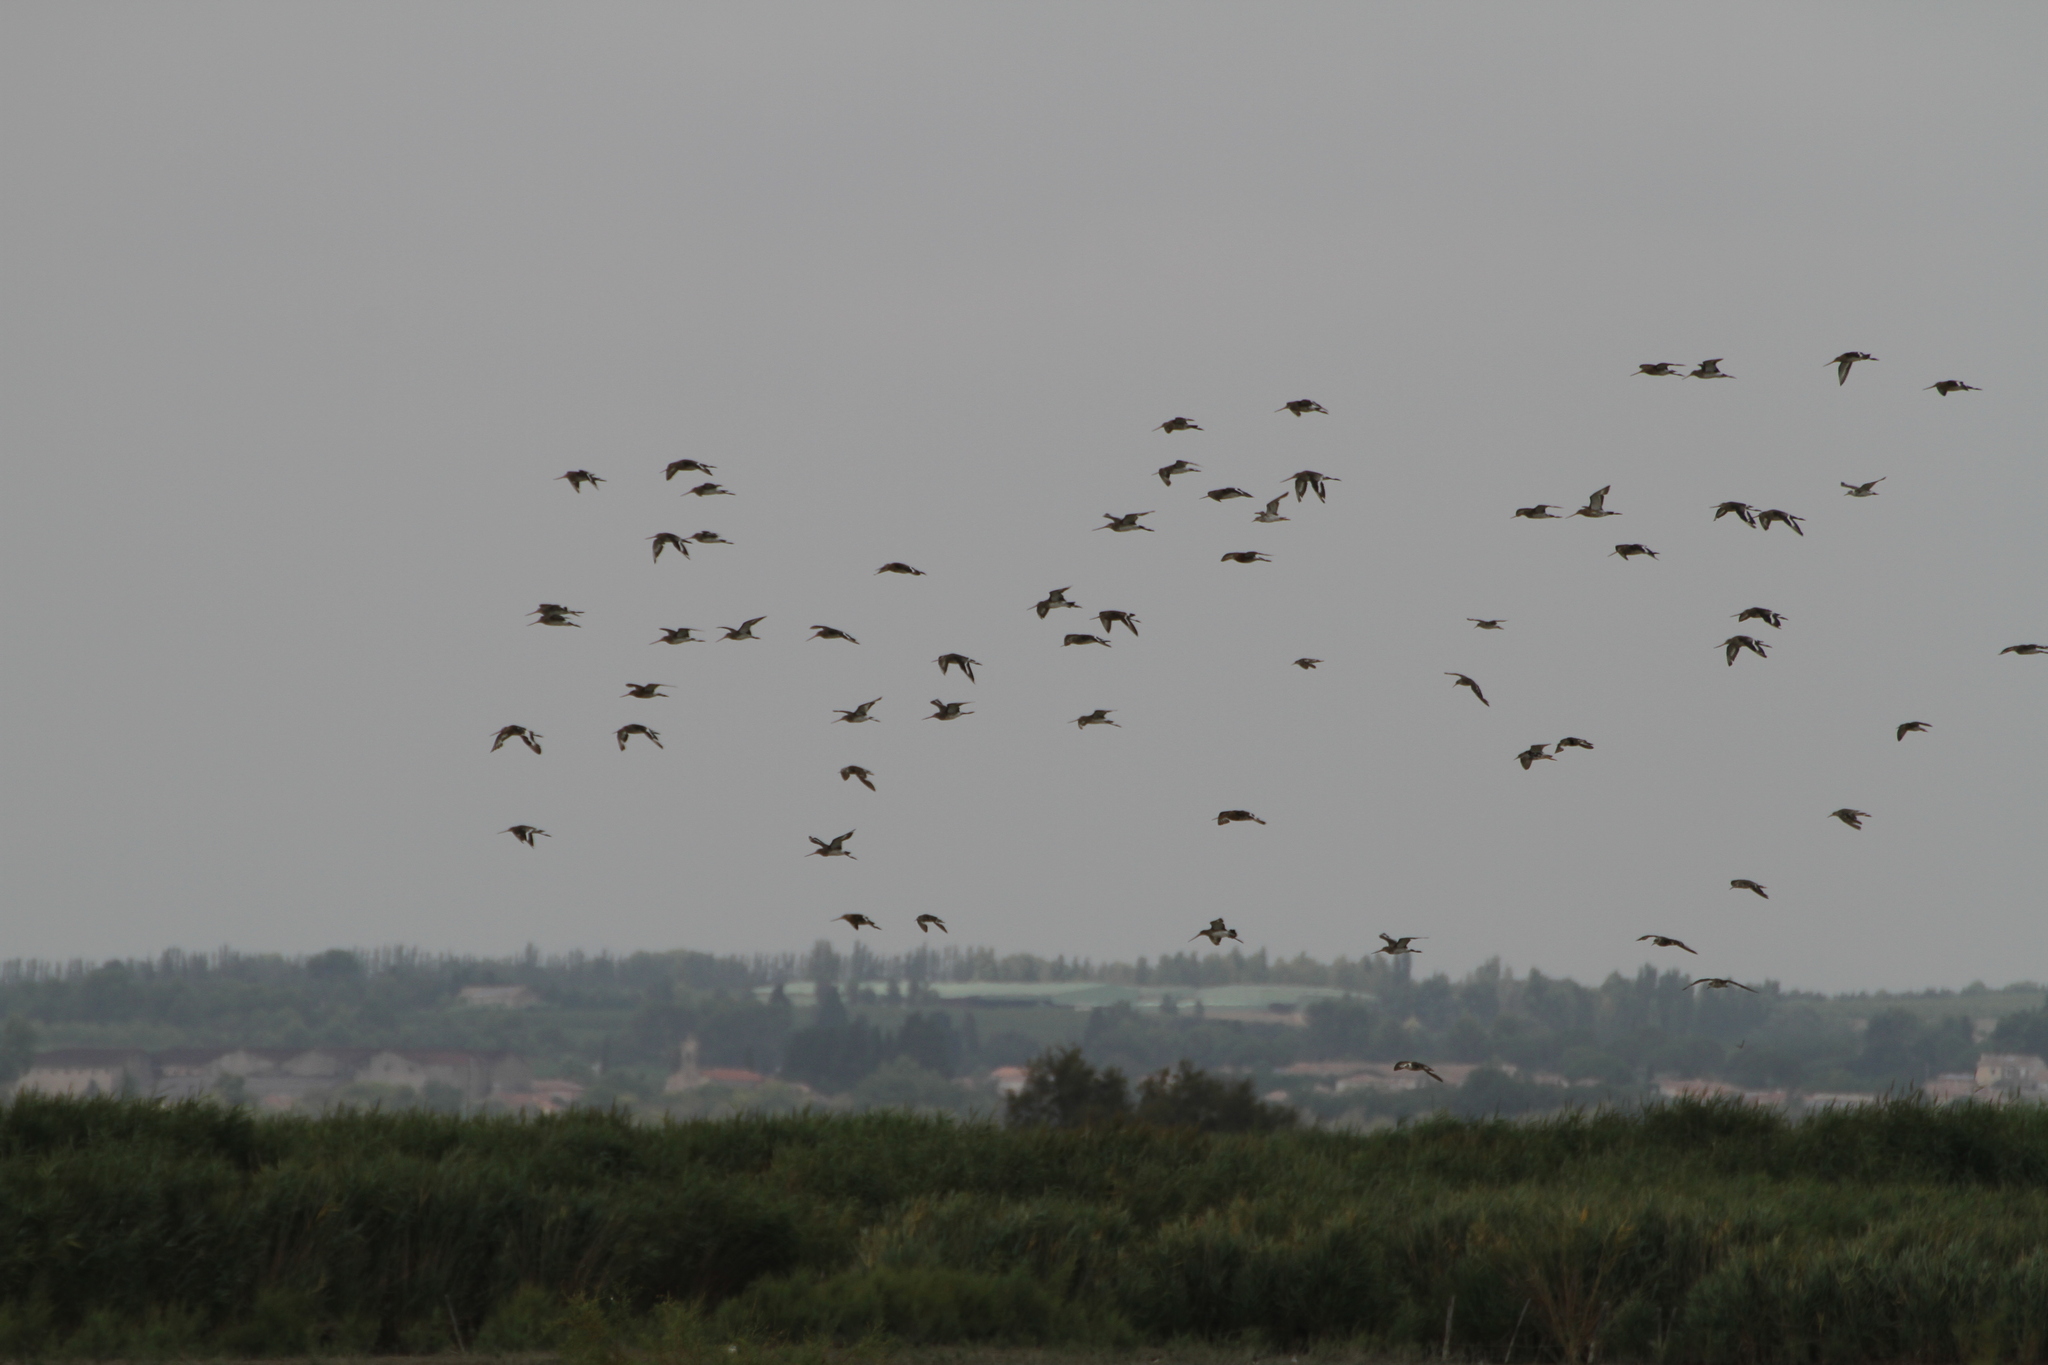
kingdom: Animalia
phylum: Chordata
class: Aves
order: Charadriiformes
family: Scolopacidae
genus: Limosa
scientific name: Limosa limosa
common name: Black-tailed godwit
